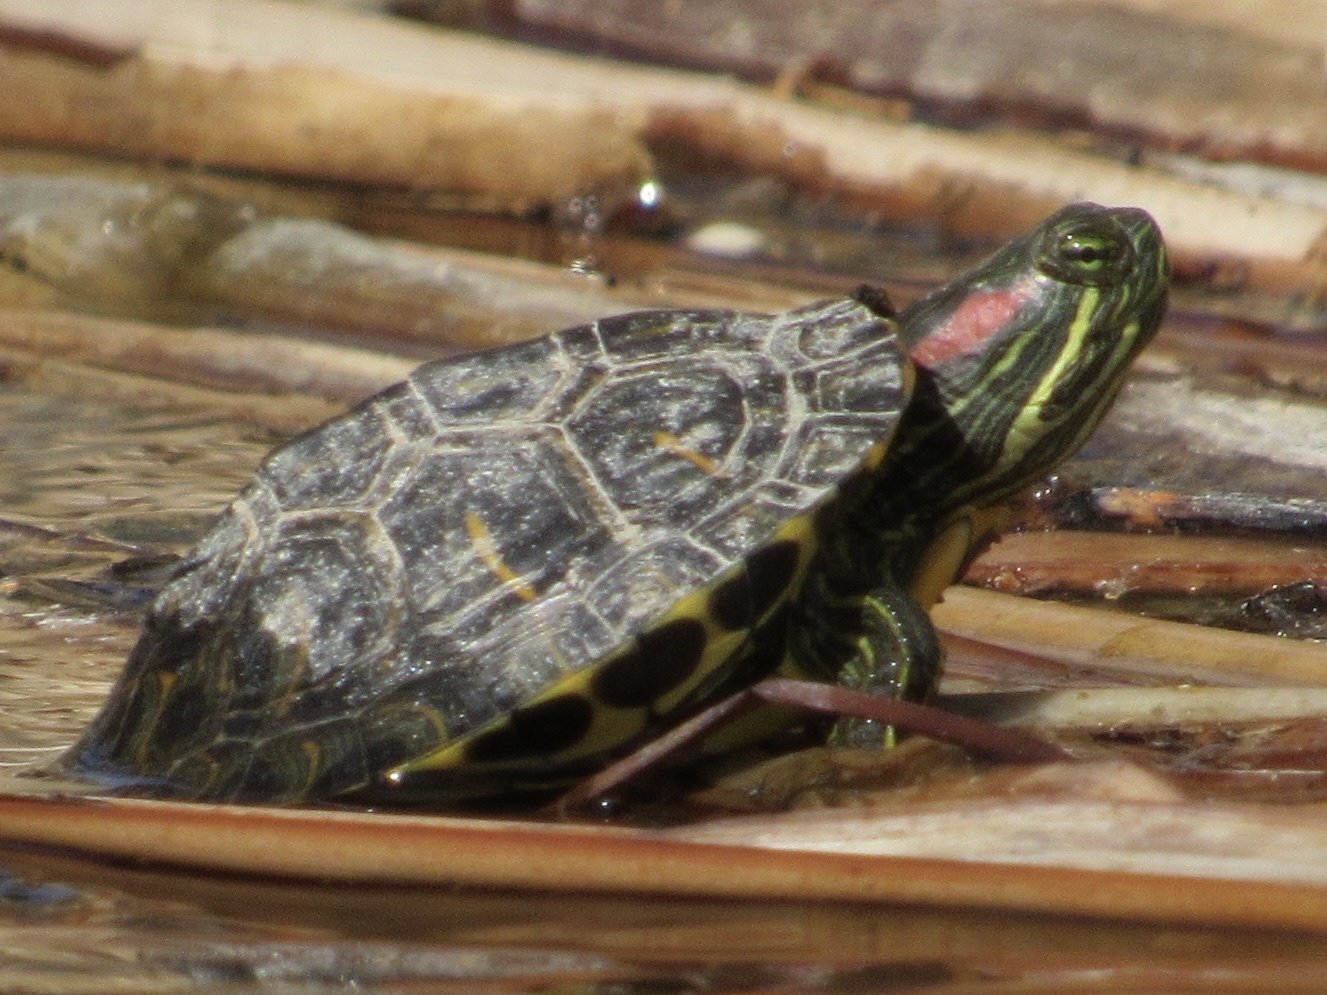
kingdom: Animalia
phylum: Chordata
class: Testudines
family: Emydidae
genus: Trachemys
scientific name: Trachemys scripta
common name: Slider
